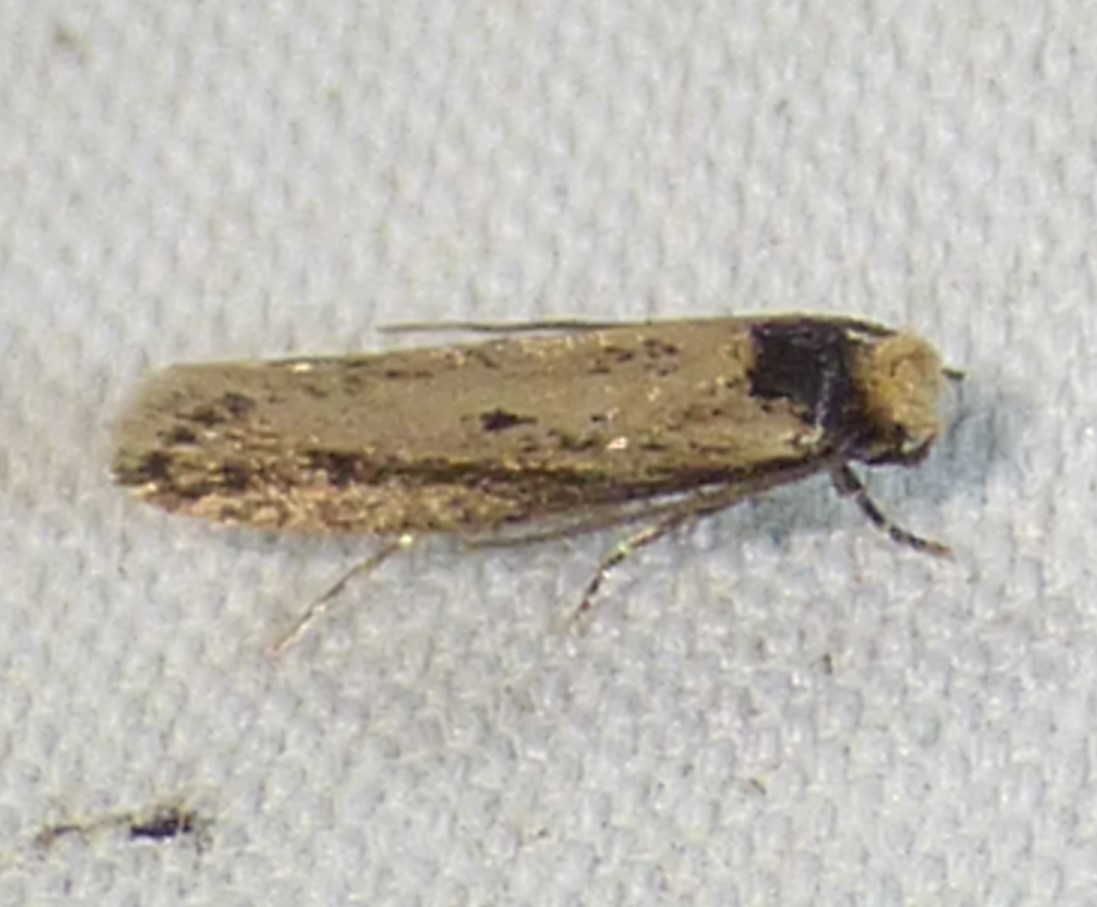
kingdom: Animalia
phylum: Arthropoda
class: Insecta
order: Lepidoptera
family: Tineidae
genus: Tinea
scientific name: Tinea apicimaculella
